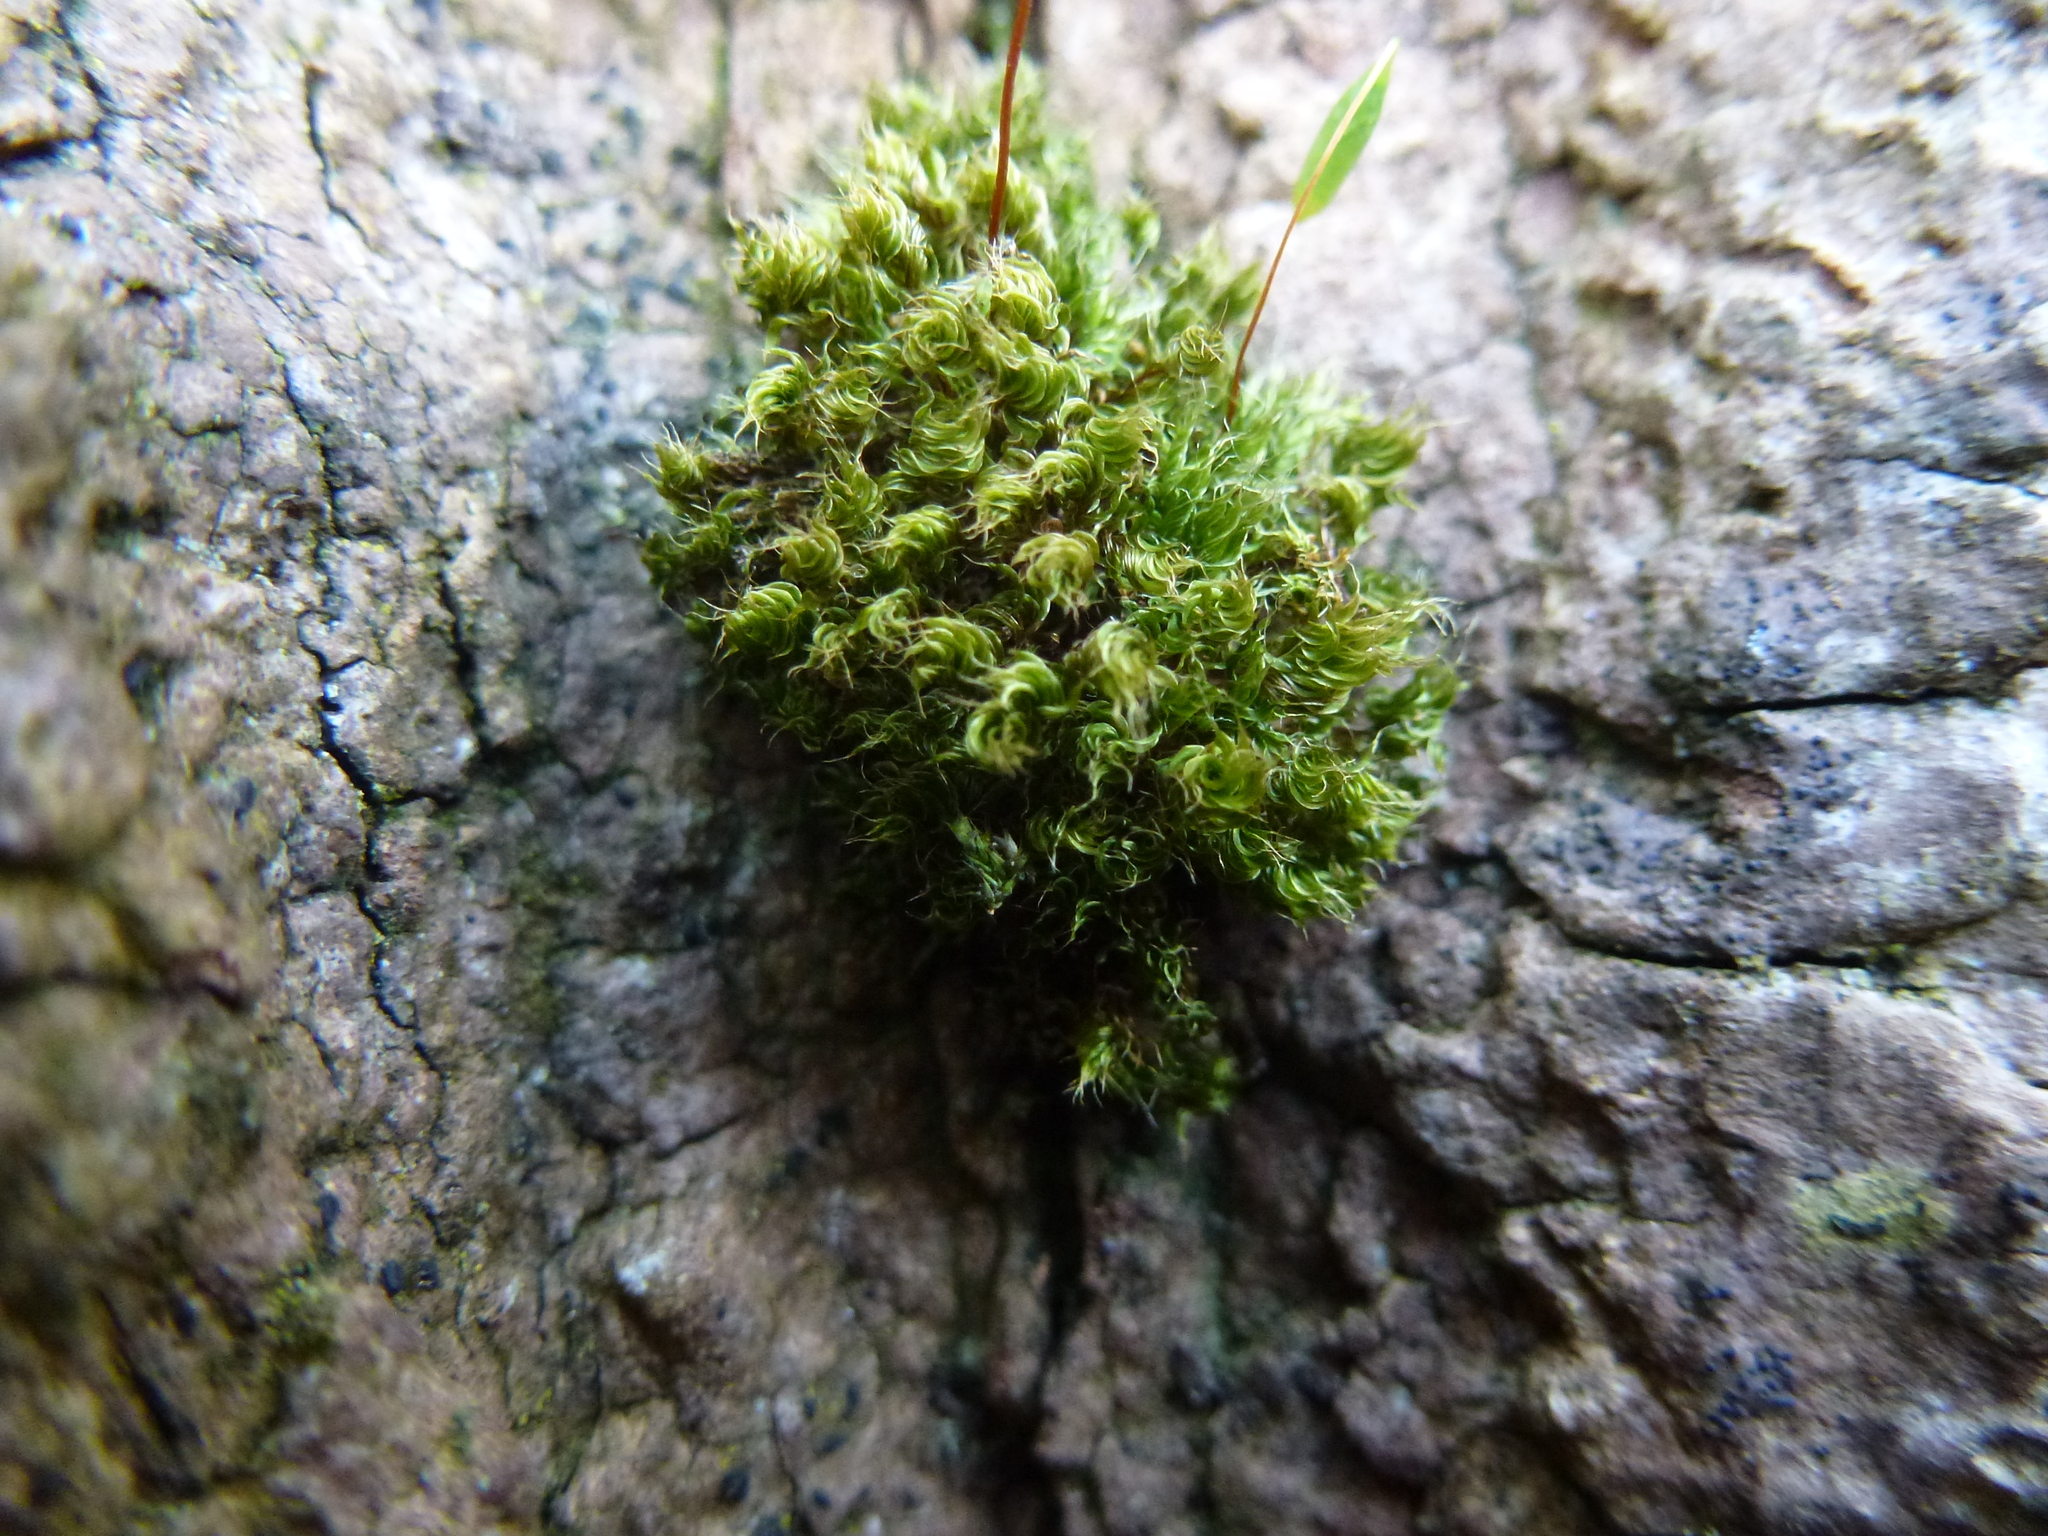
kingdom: Plantae
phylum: Bryophyta
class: Bryopsida
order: Bryales
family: Bryaceae
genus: Rosulabryum
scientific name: Rosulabryum capillare
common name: Capillary thread-moss
